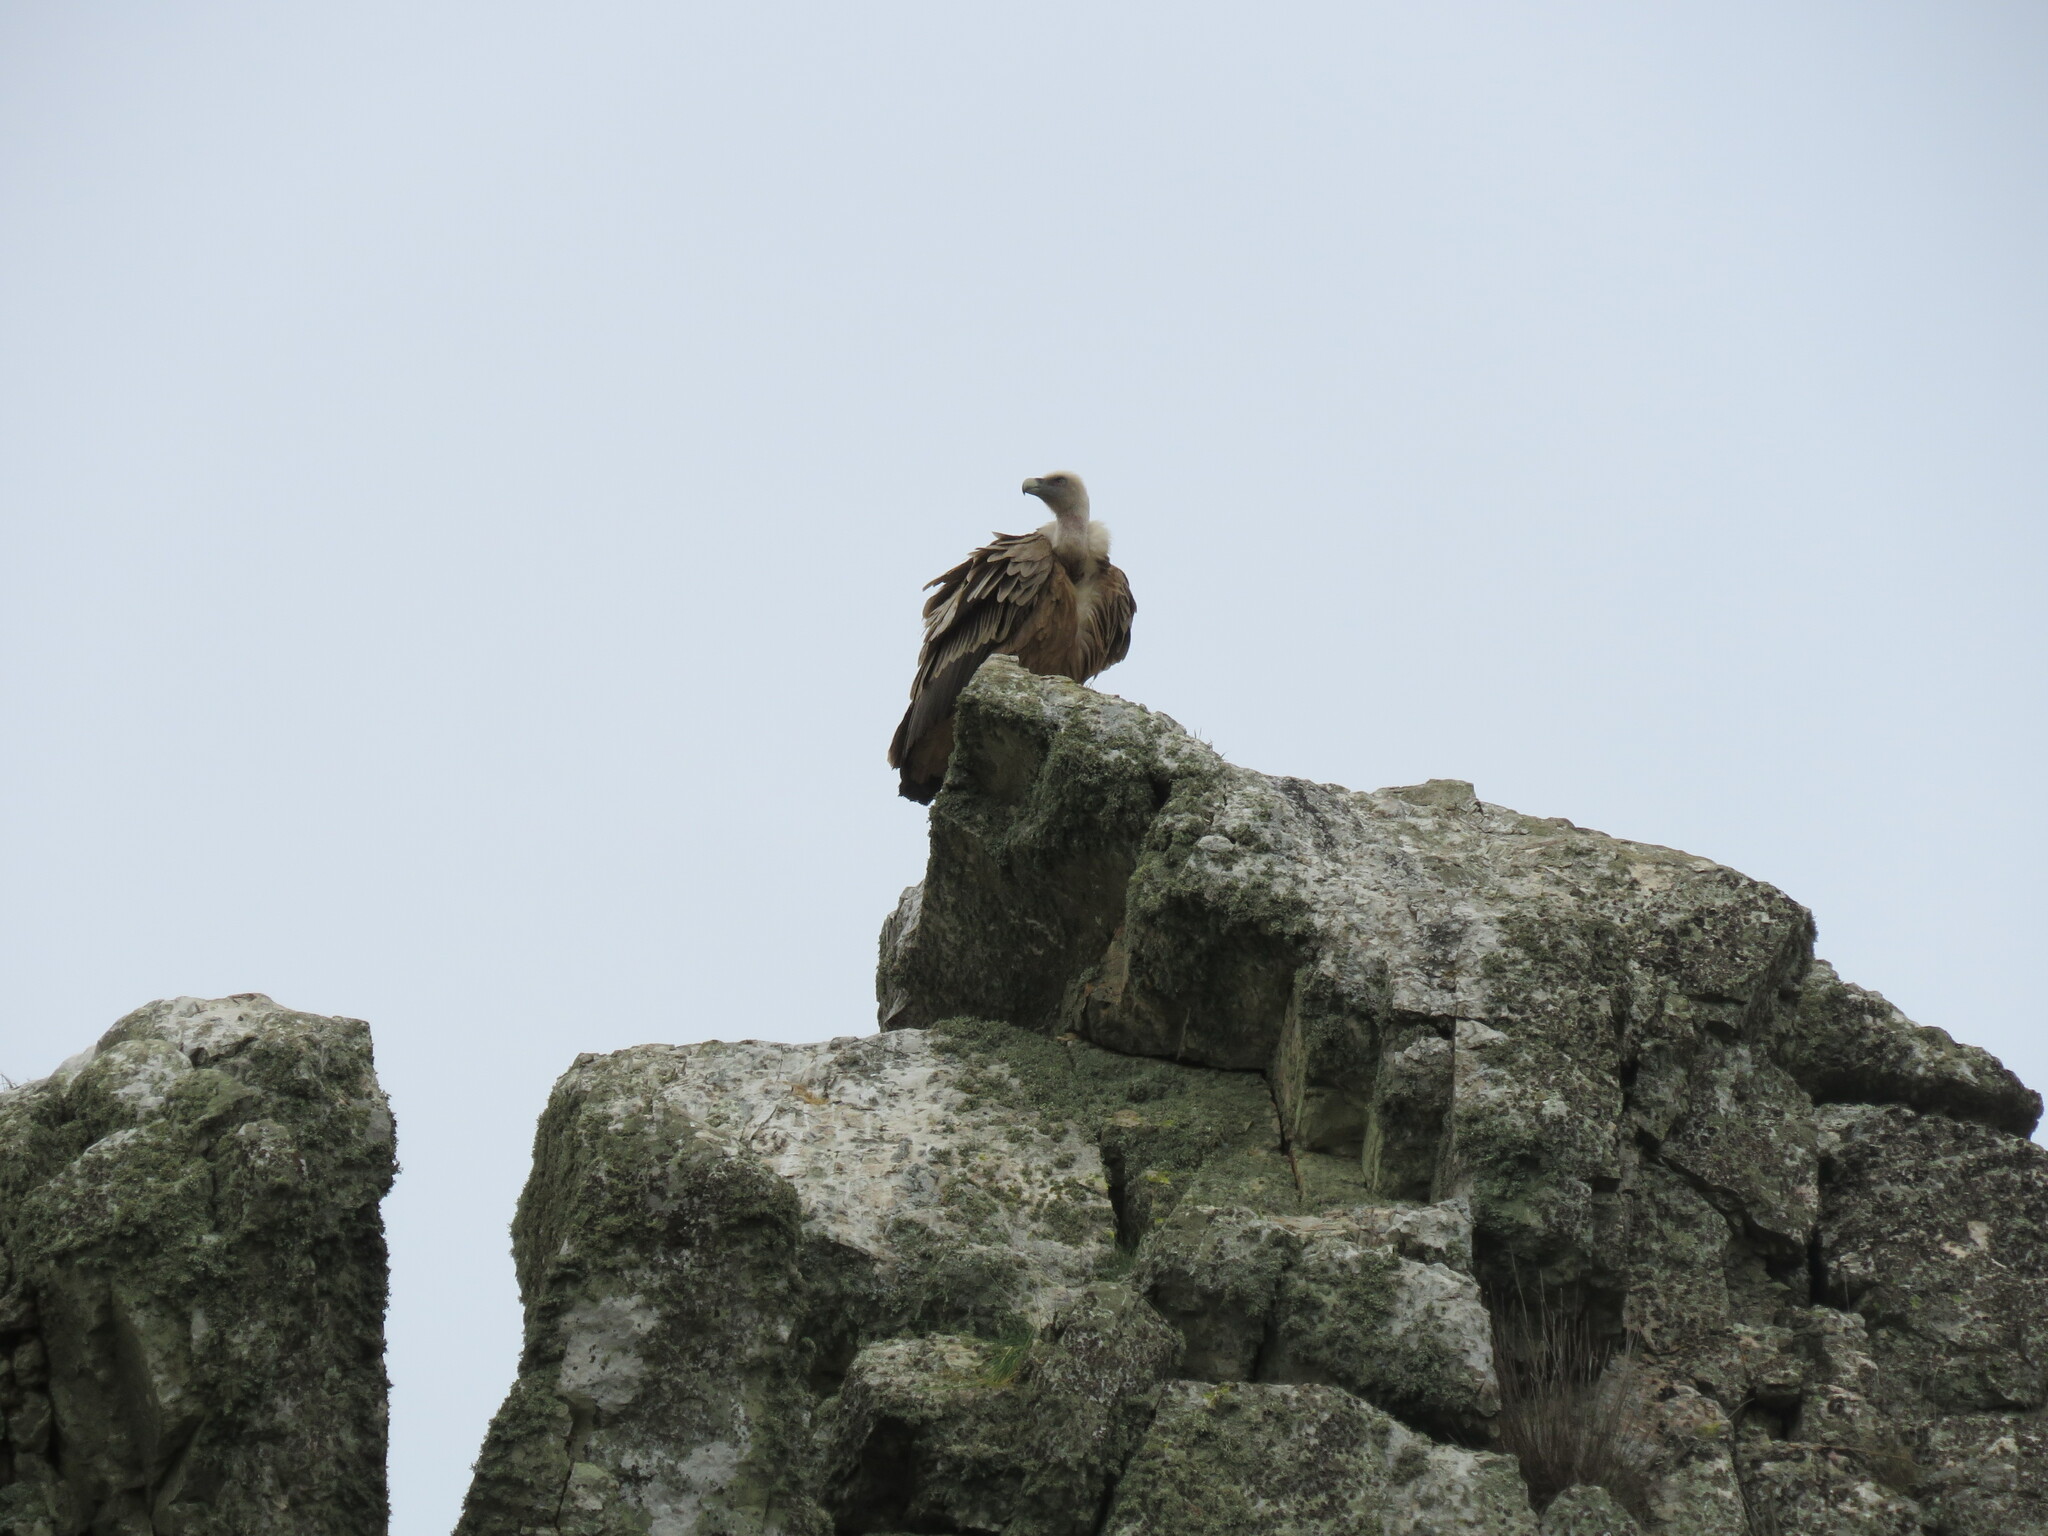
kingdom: Animalia
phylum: Chordata
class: Aves
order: Accipitriformes
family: Accipitridae
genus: Gyps
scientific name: Gyps fulvus
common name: Griffon vulture
